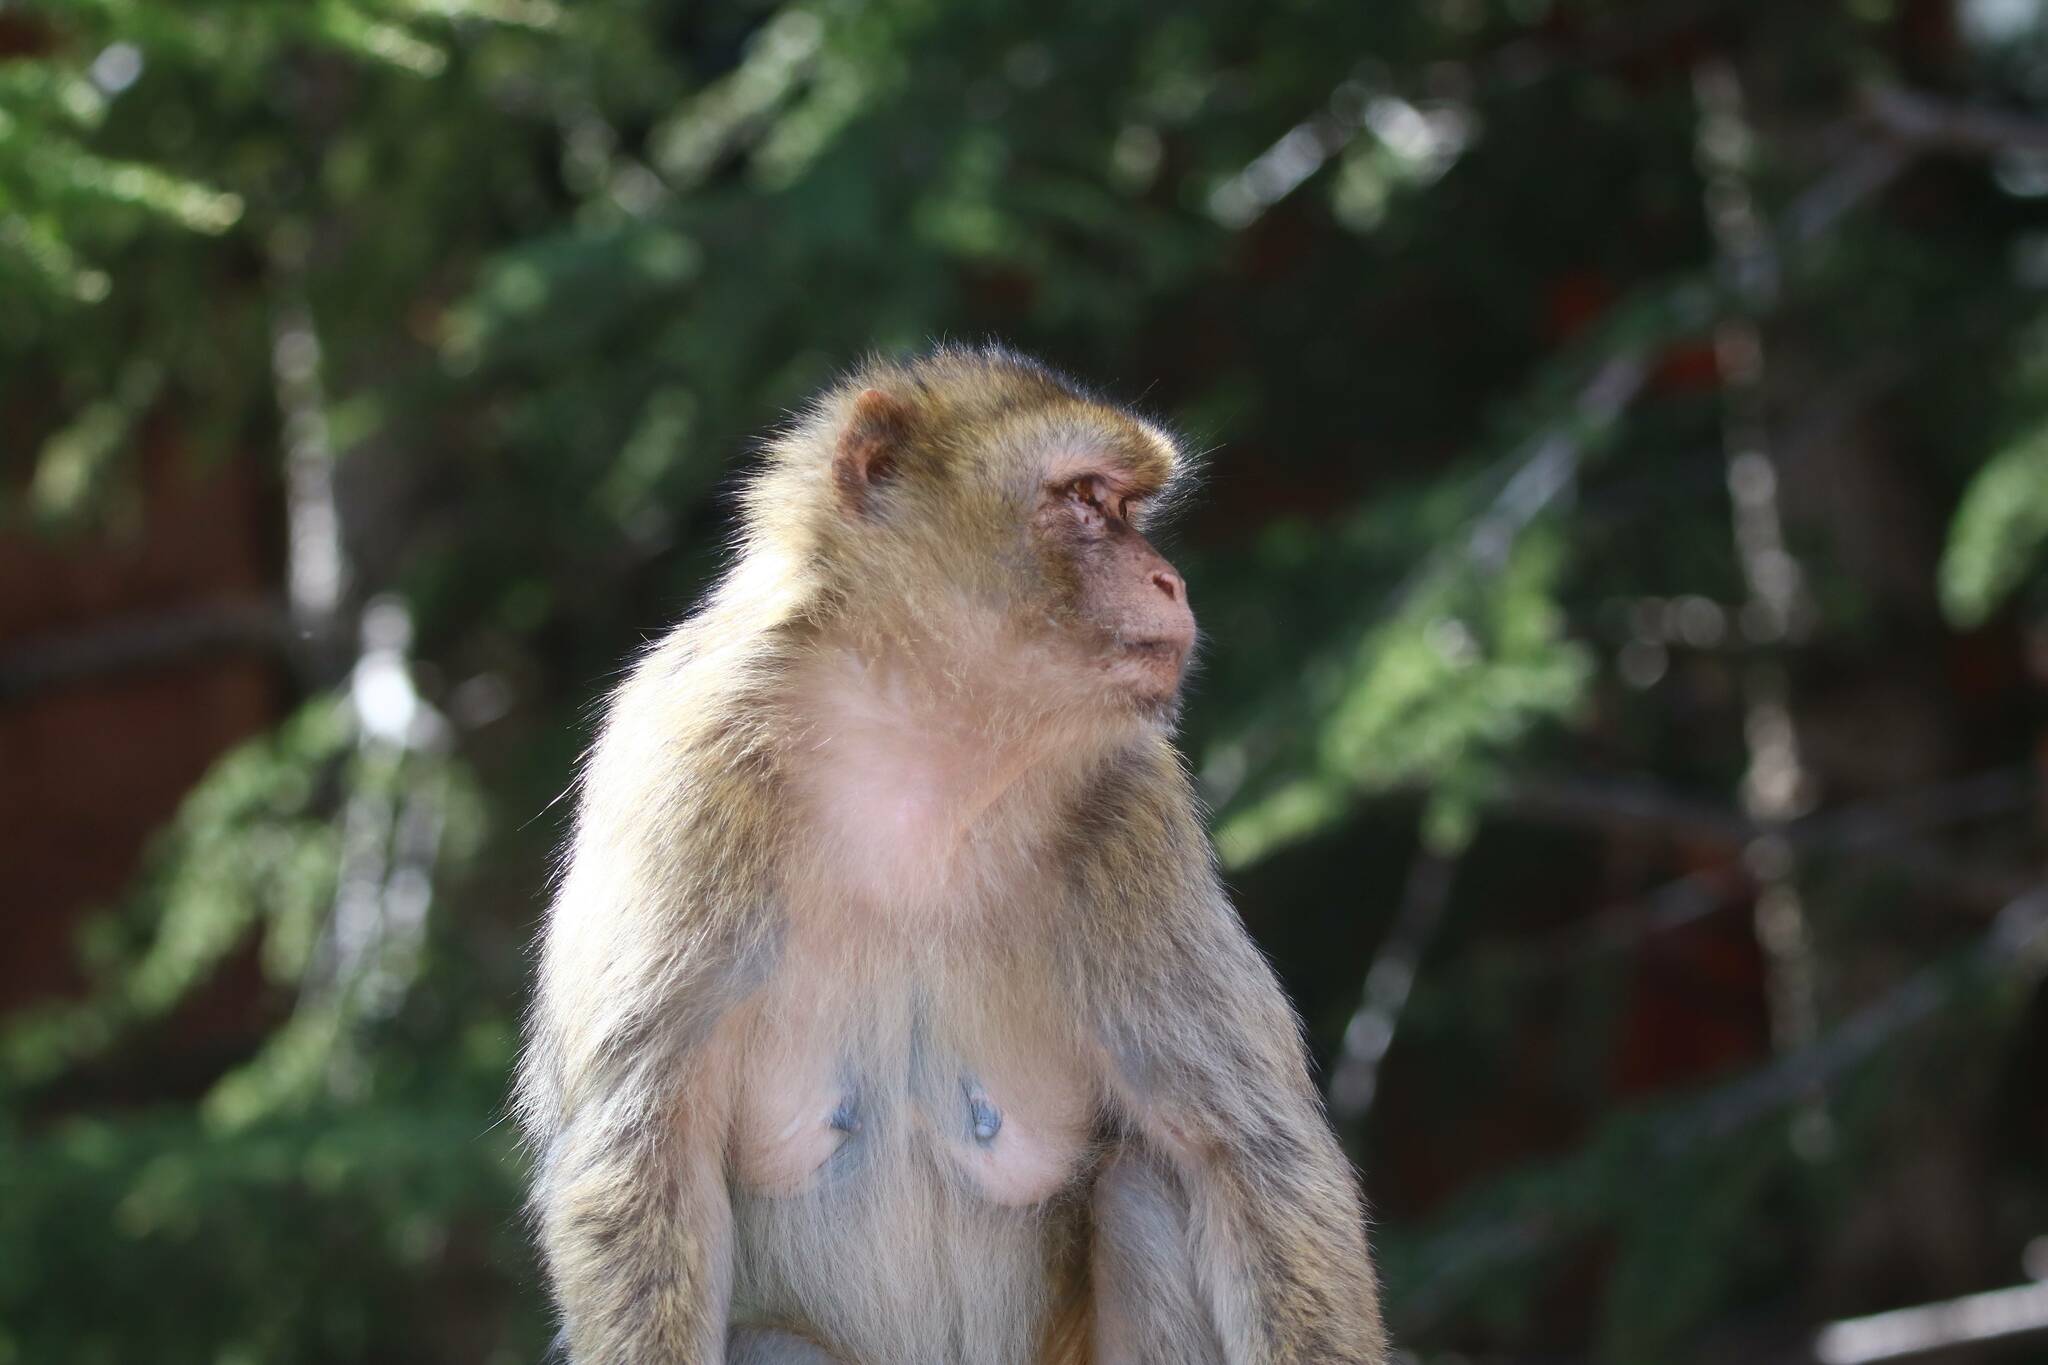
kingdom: Animalia
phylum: Chordata
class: Mammalia
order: Primates
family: Cercopithecidae
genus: Macaca
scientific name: Macaca sylvanus
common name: Barbary macaque
